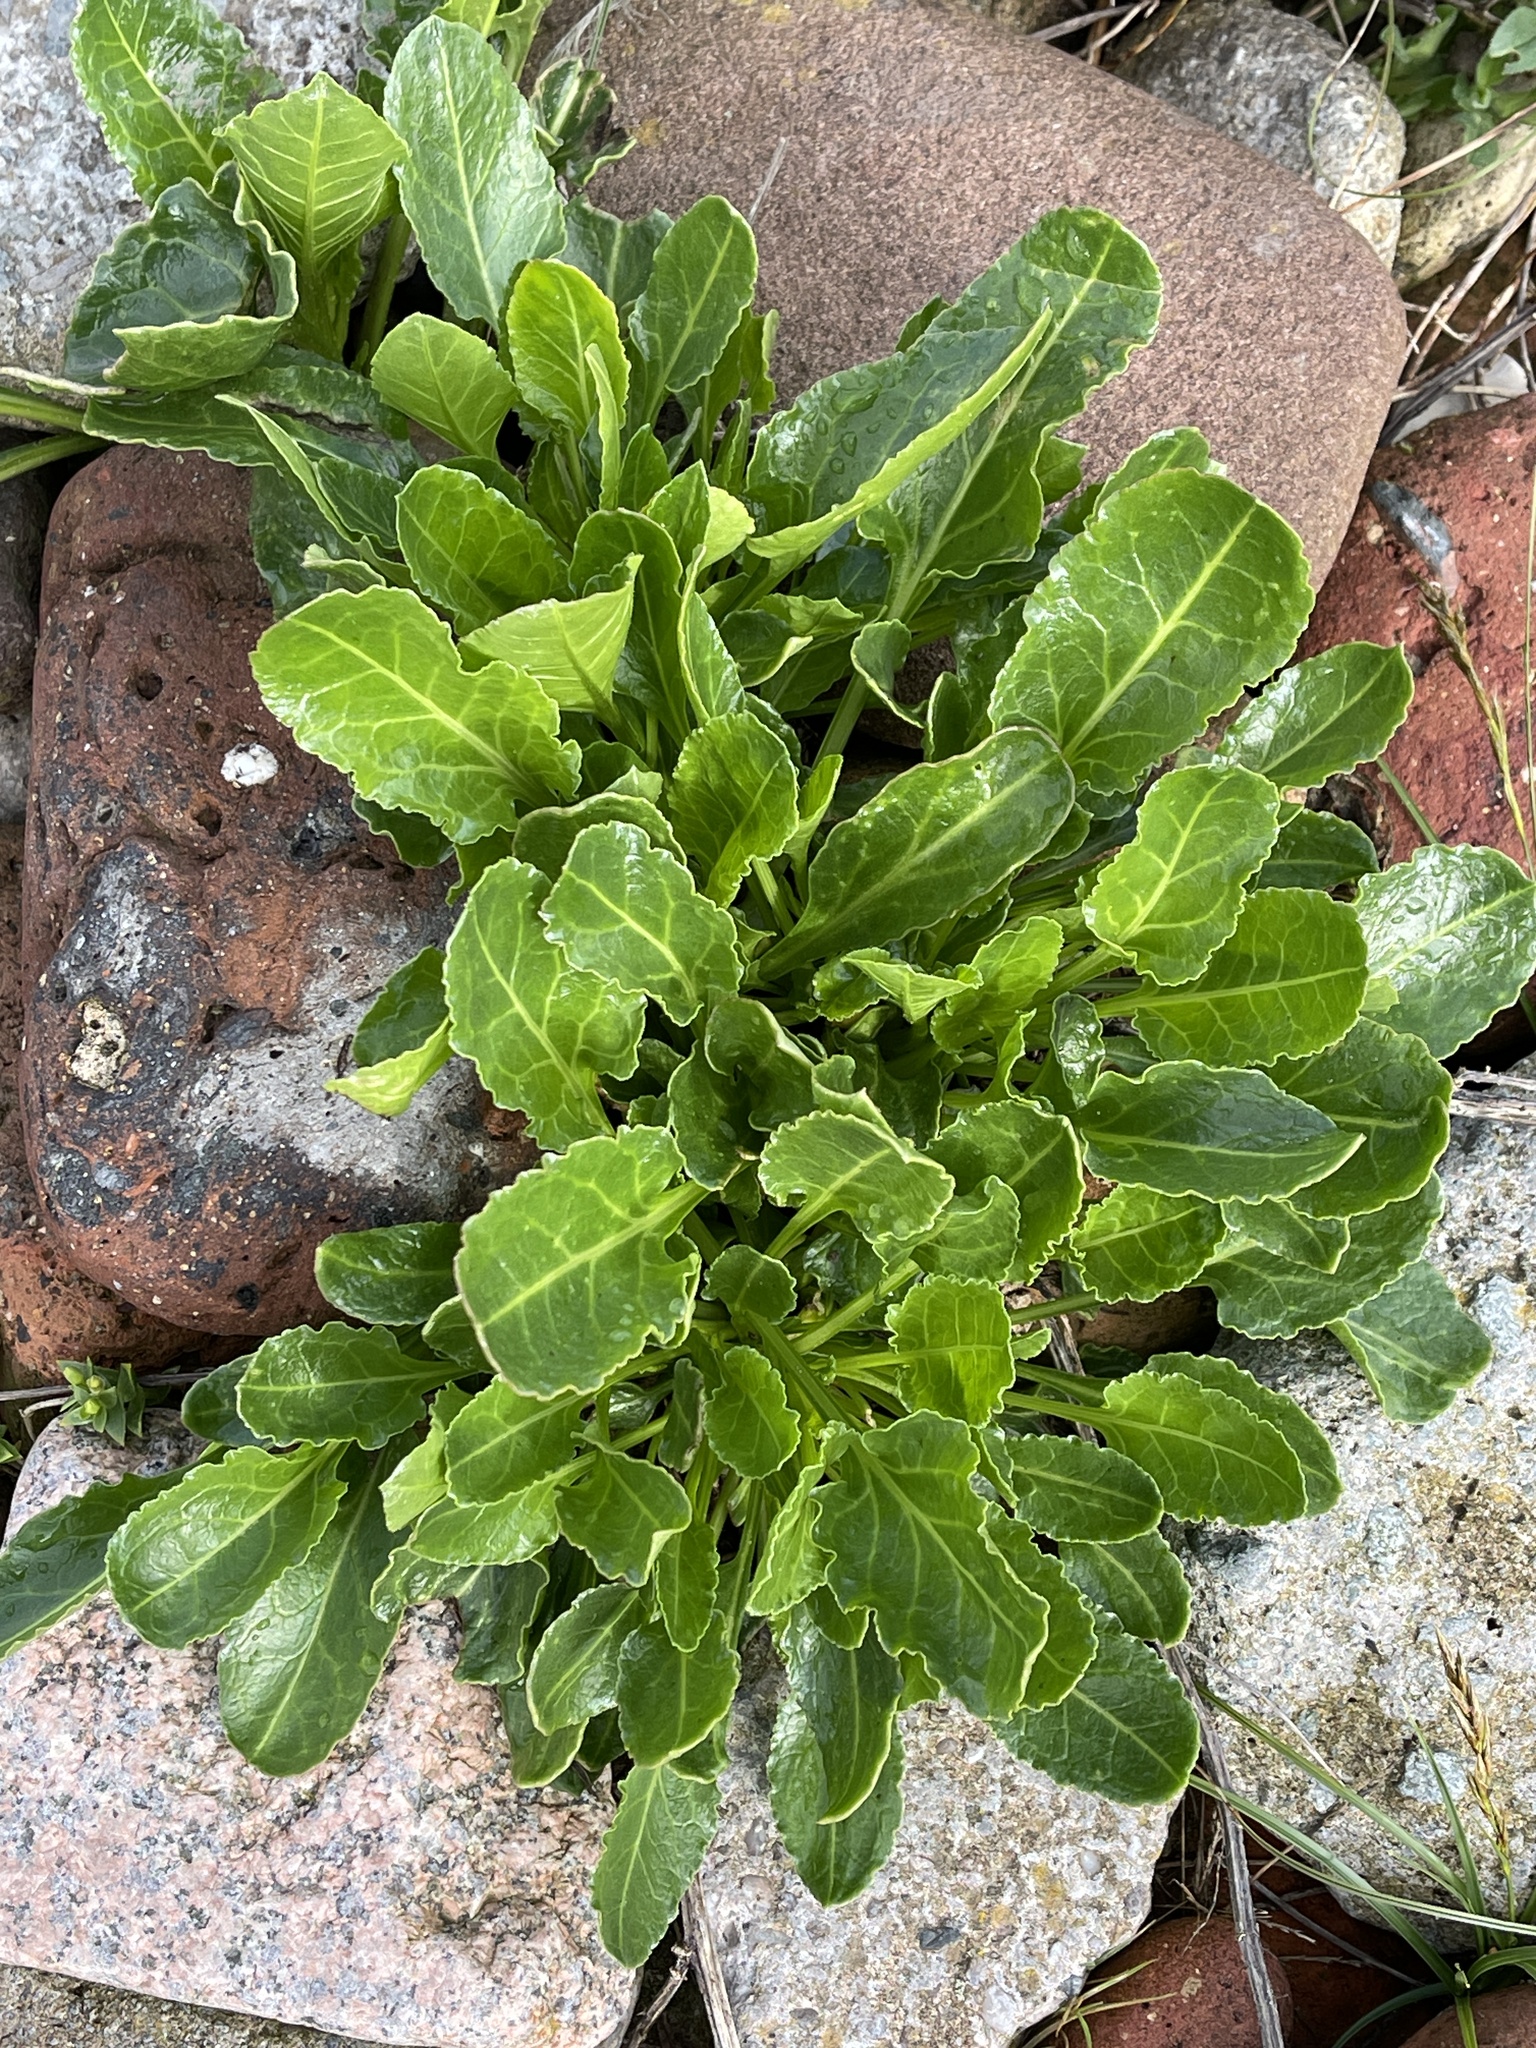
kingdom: Plantae
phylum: Tracheophyta
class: Magnoliopsida
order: Caryophyllales
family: Amaranthaceae
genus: Beta
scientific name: Beta vulgaris
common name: Beet
